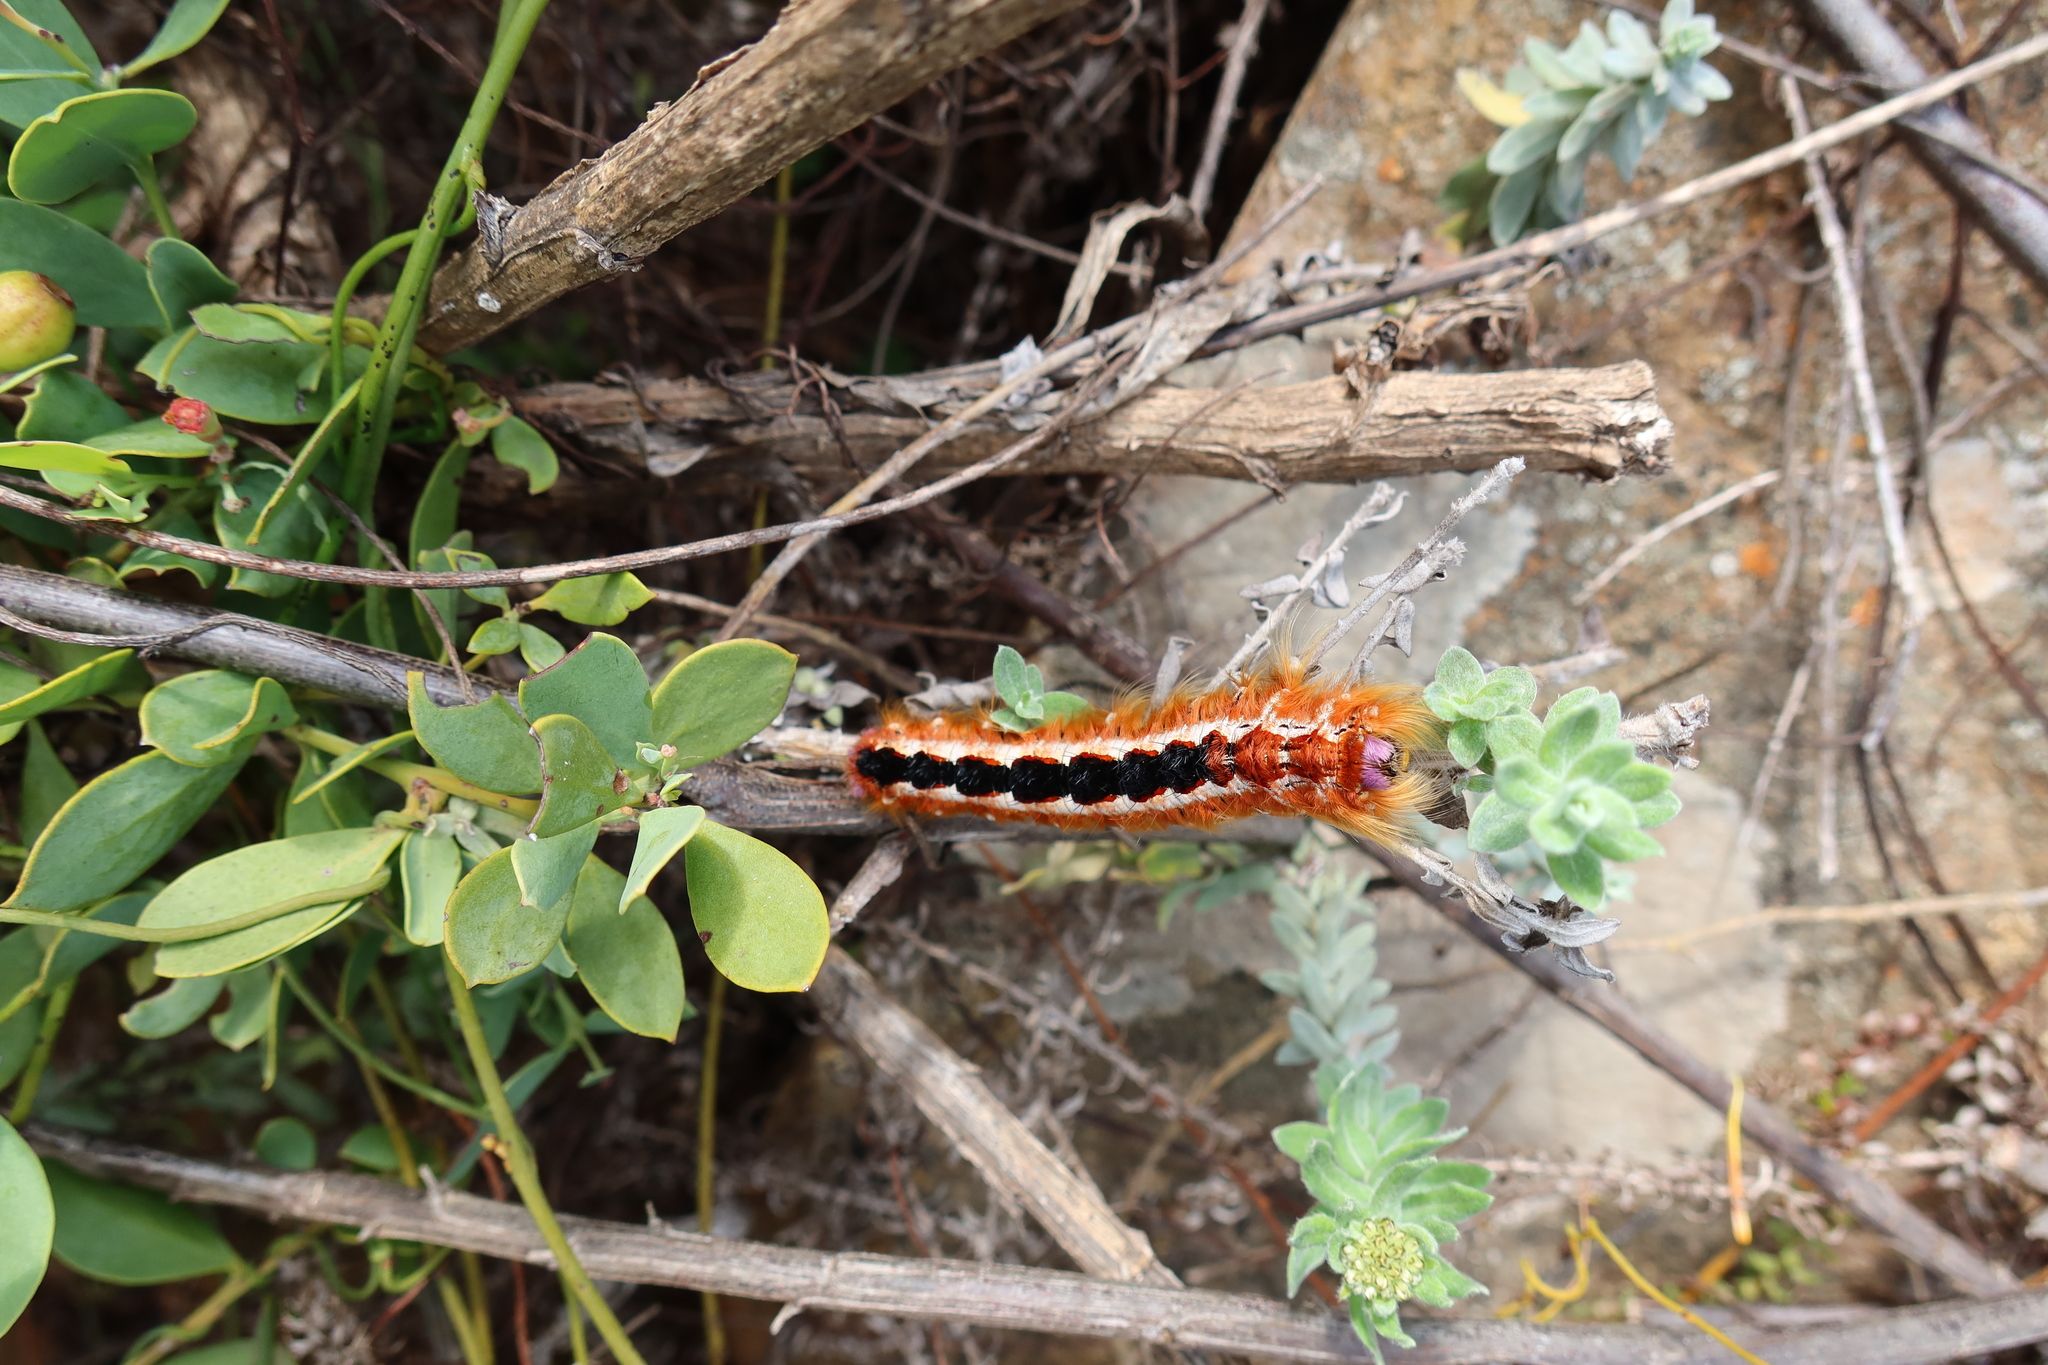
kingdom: Animalia
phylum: Arthropoda
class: Insecta
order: Lepidoptera
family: Lasiocampidae
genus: Eutricha
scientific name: Eutricha capensis
